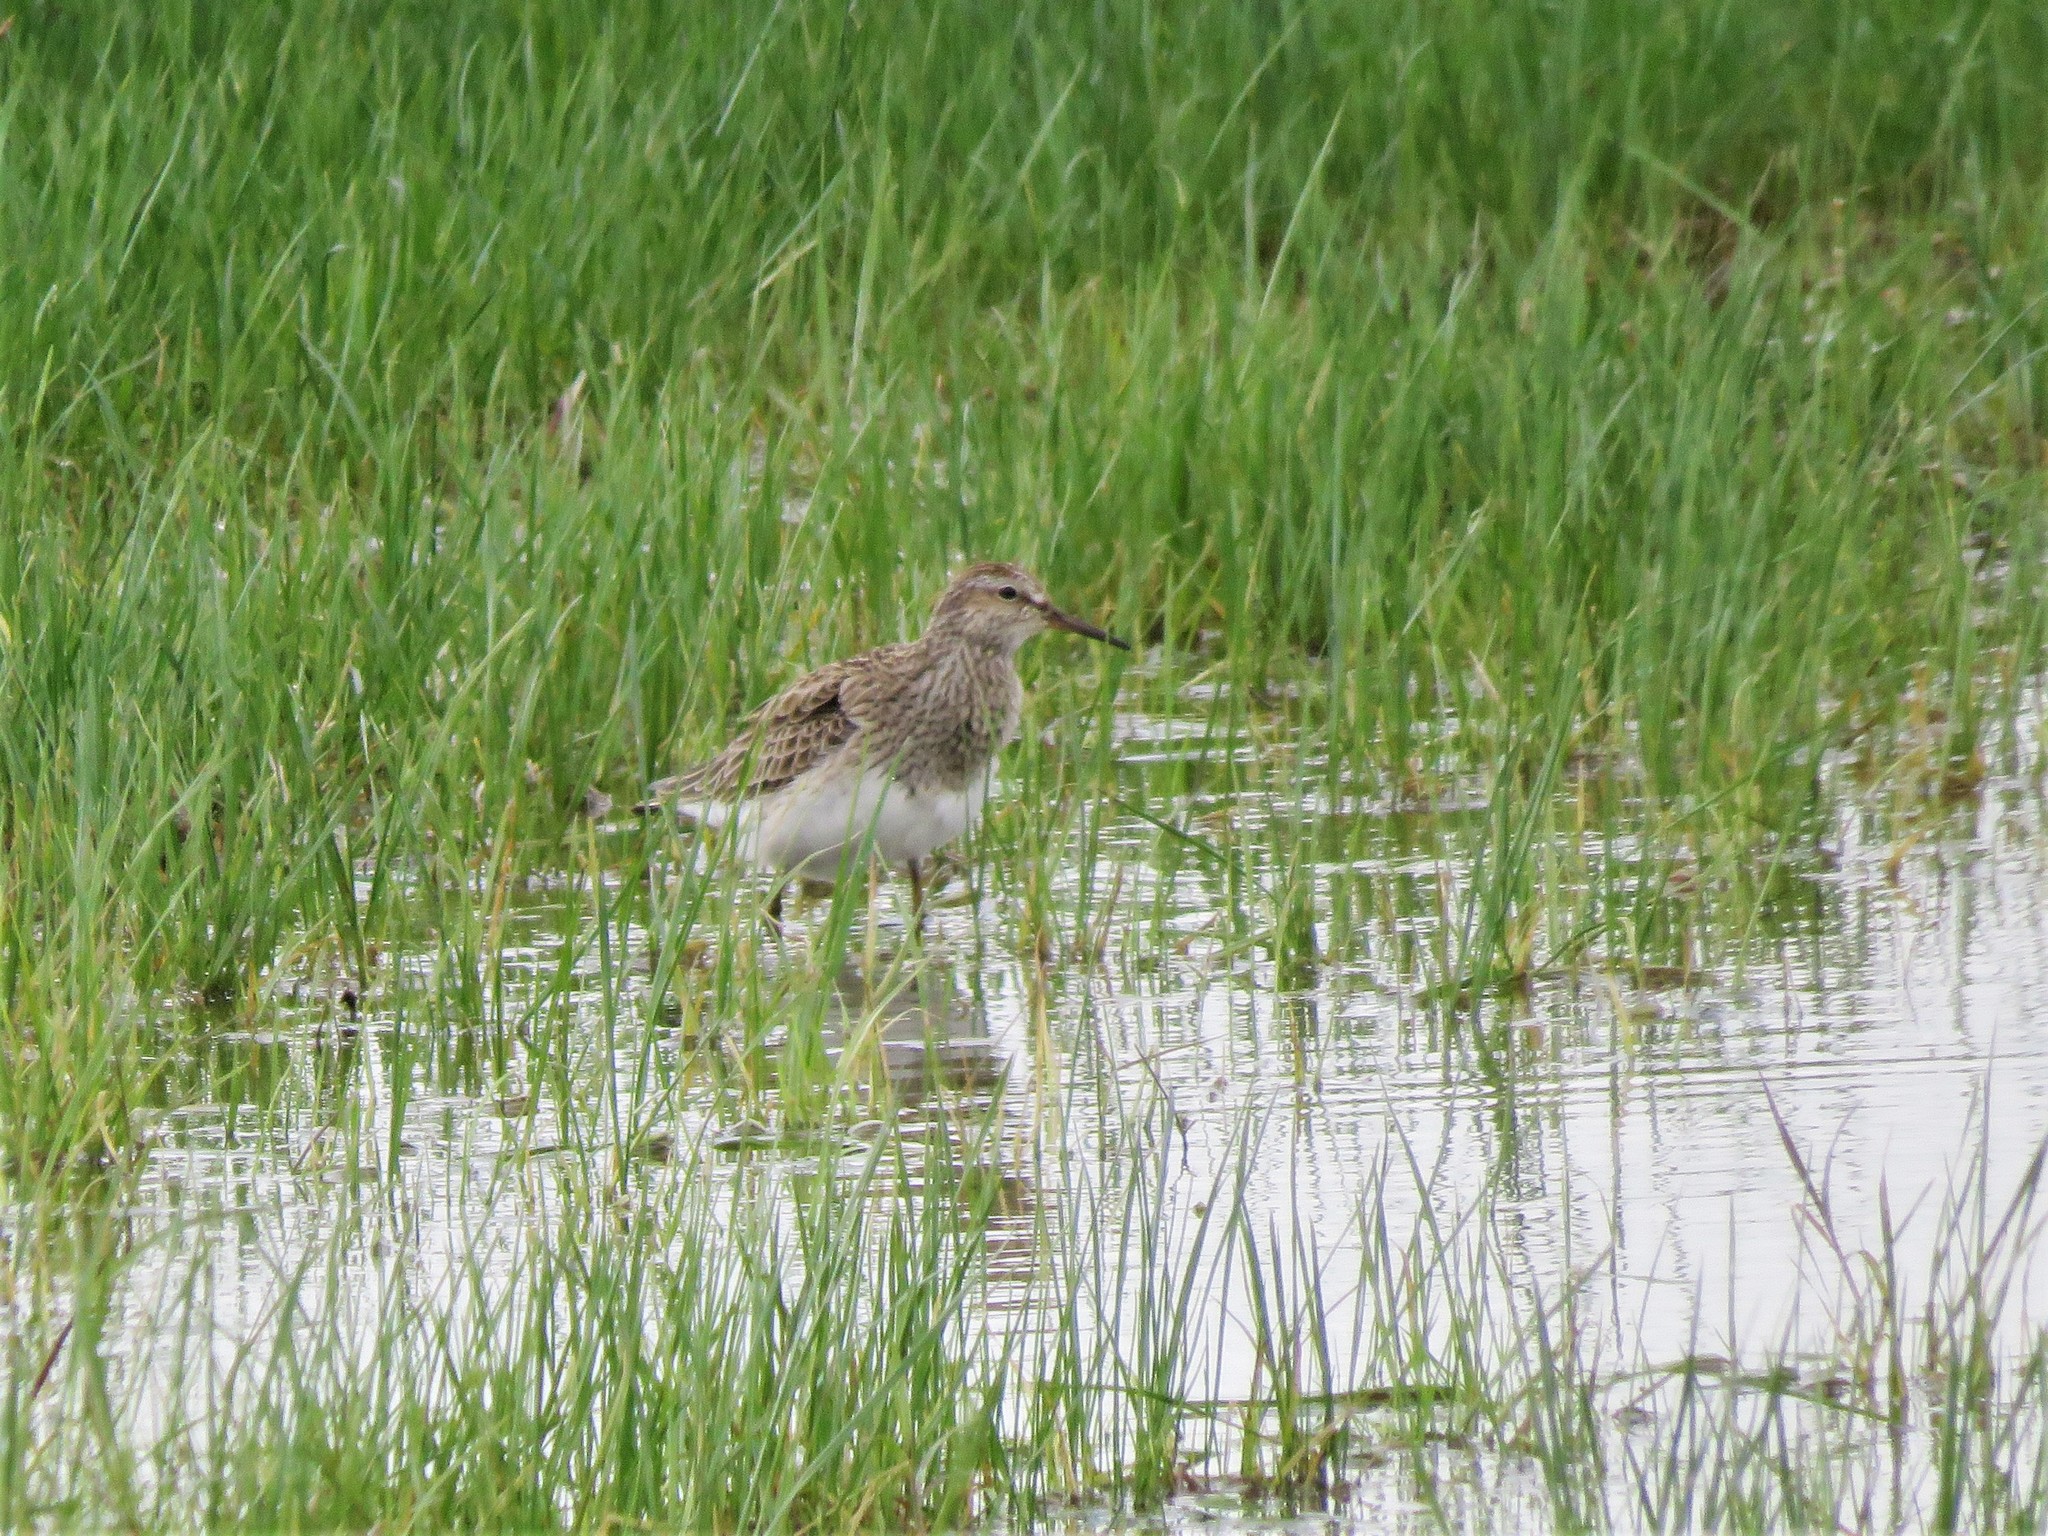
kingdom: Animalia
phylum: Chordata
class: Aves
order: Charadriiformes
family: Scolopacidae
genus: Calidris
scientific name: Calidris melanotos
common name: Pectoral sandpiper
